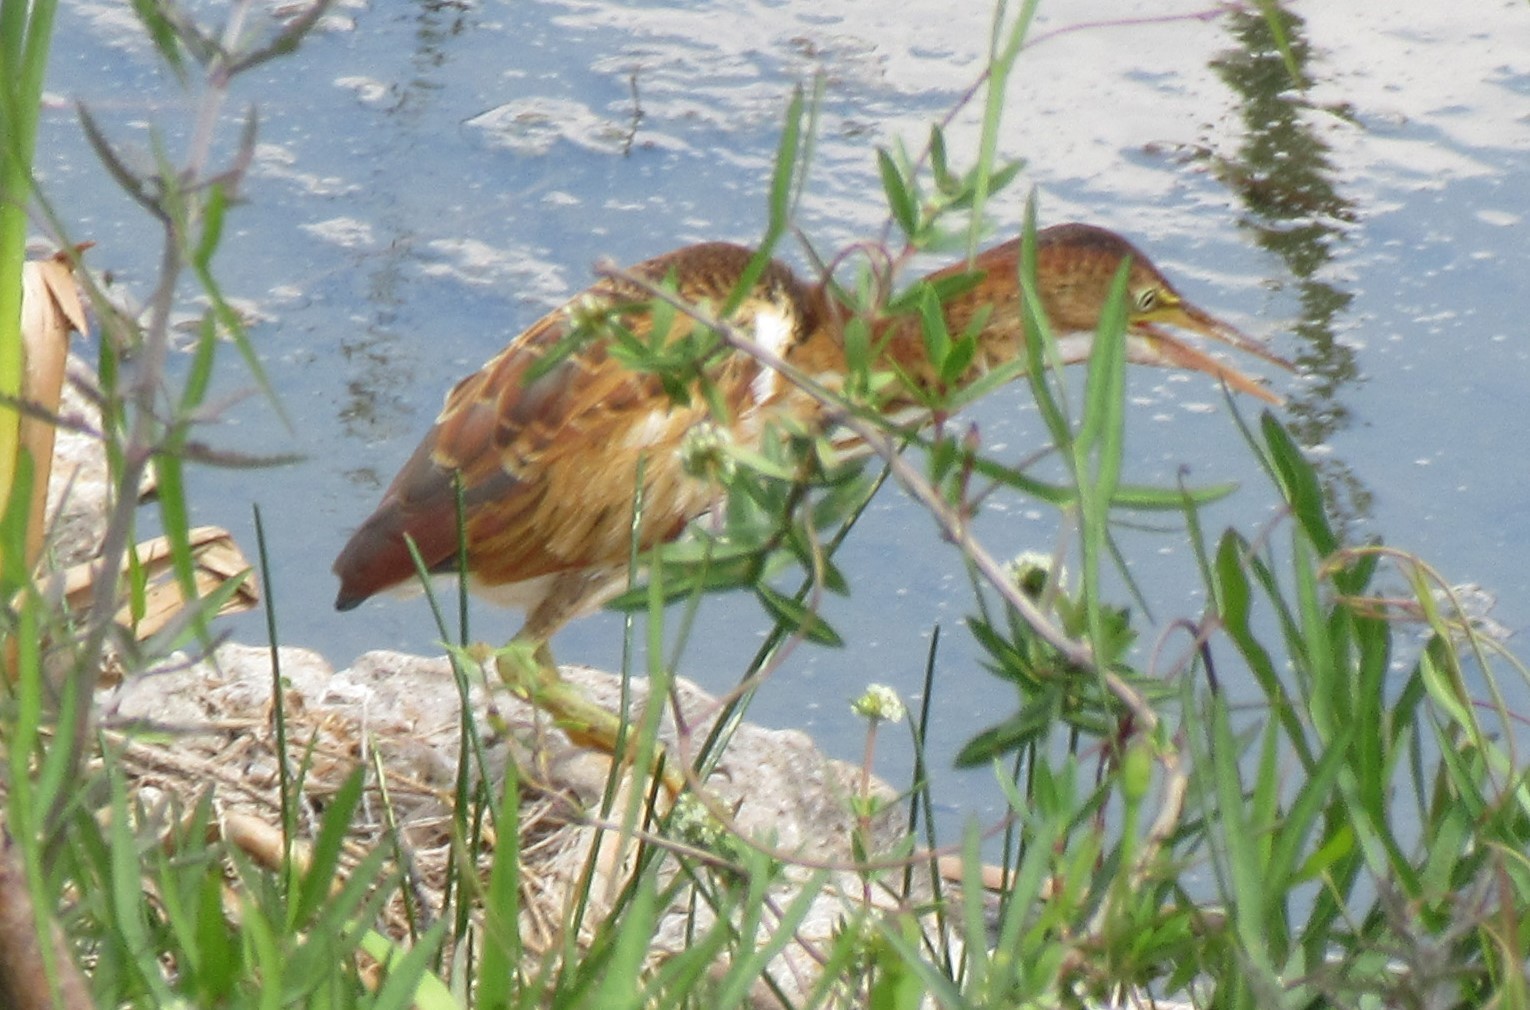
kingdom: Animalia
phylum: Chordata
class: Aves
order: Pelecaniformes
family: Ardeidae
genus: Ixobrychus
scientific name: Ixobrychus exilis
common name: Least bittern
